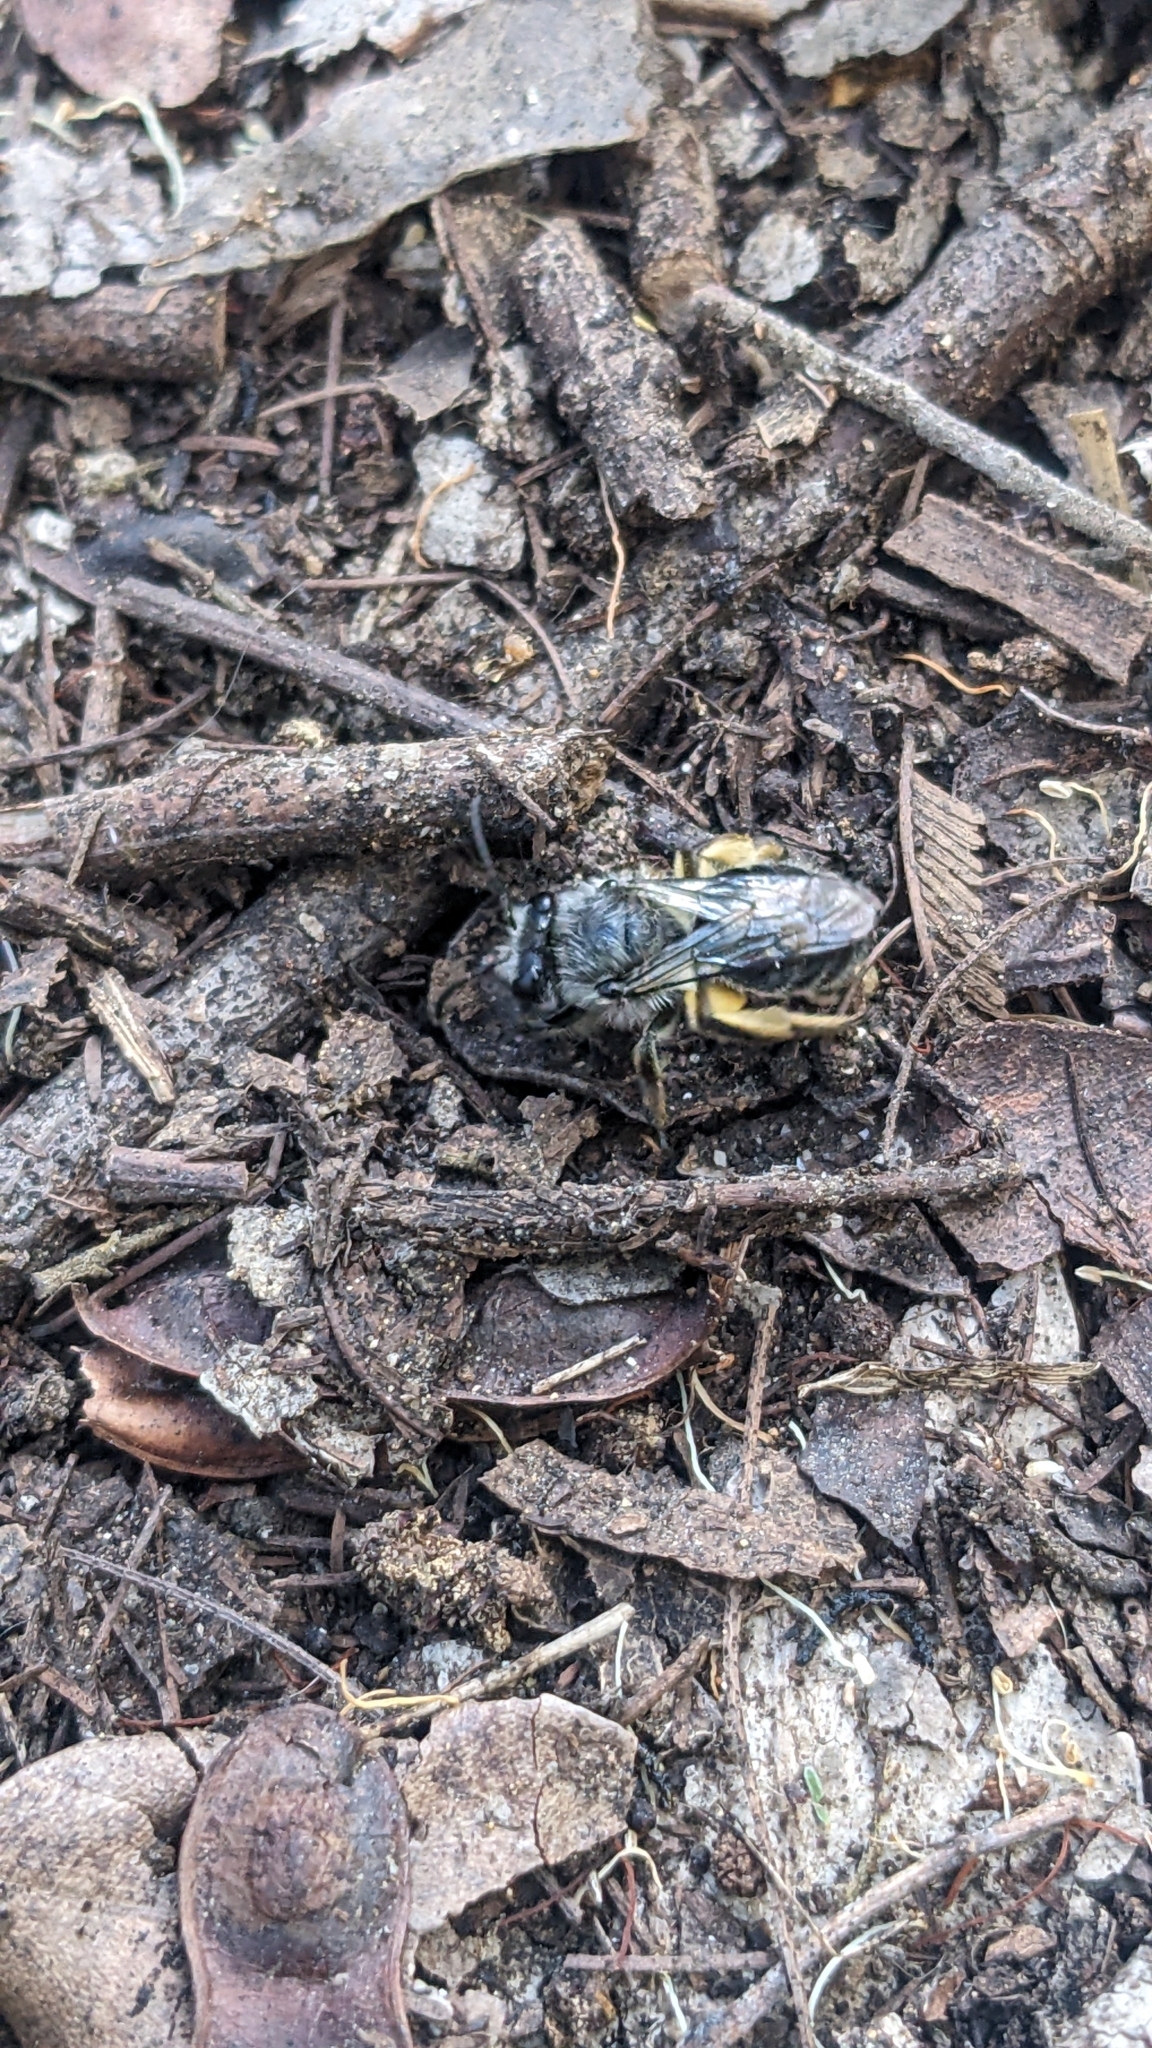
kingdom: Animalia
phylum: Arthropoda
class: Insecta
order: Hymenoptera
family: Colletidae
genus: Colletes
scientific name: Colletes cyanescens
